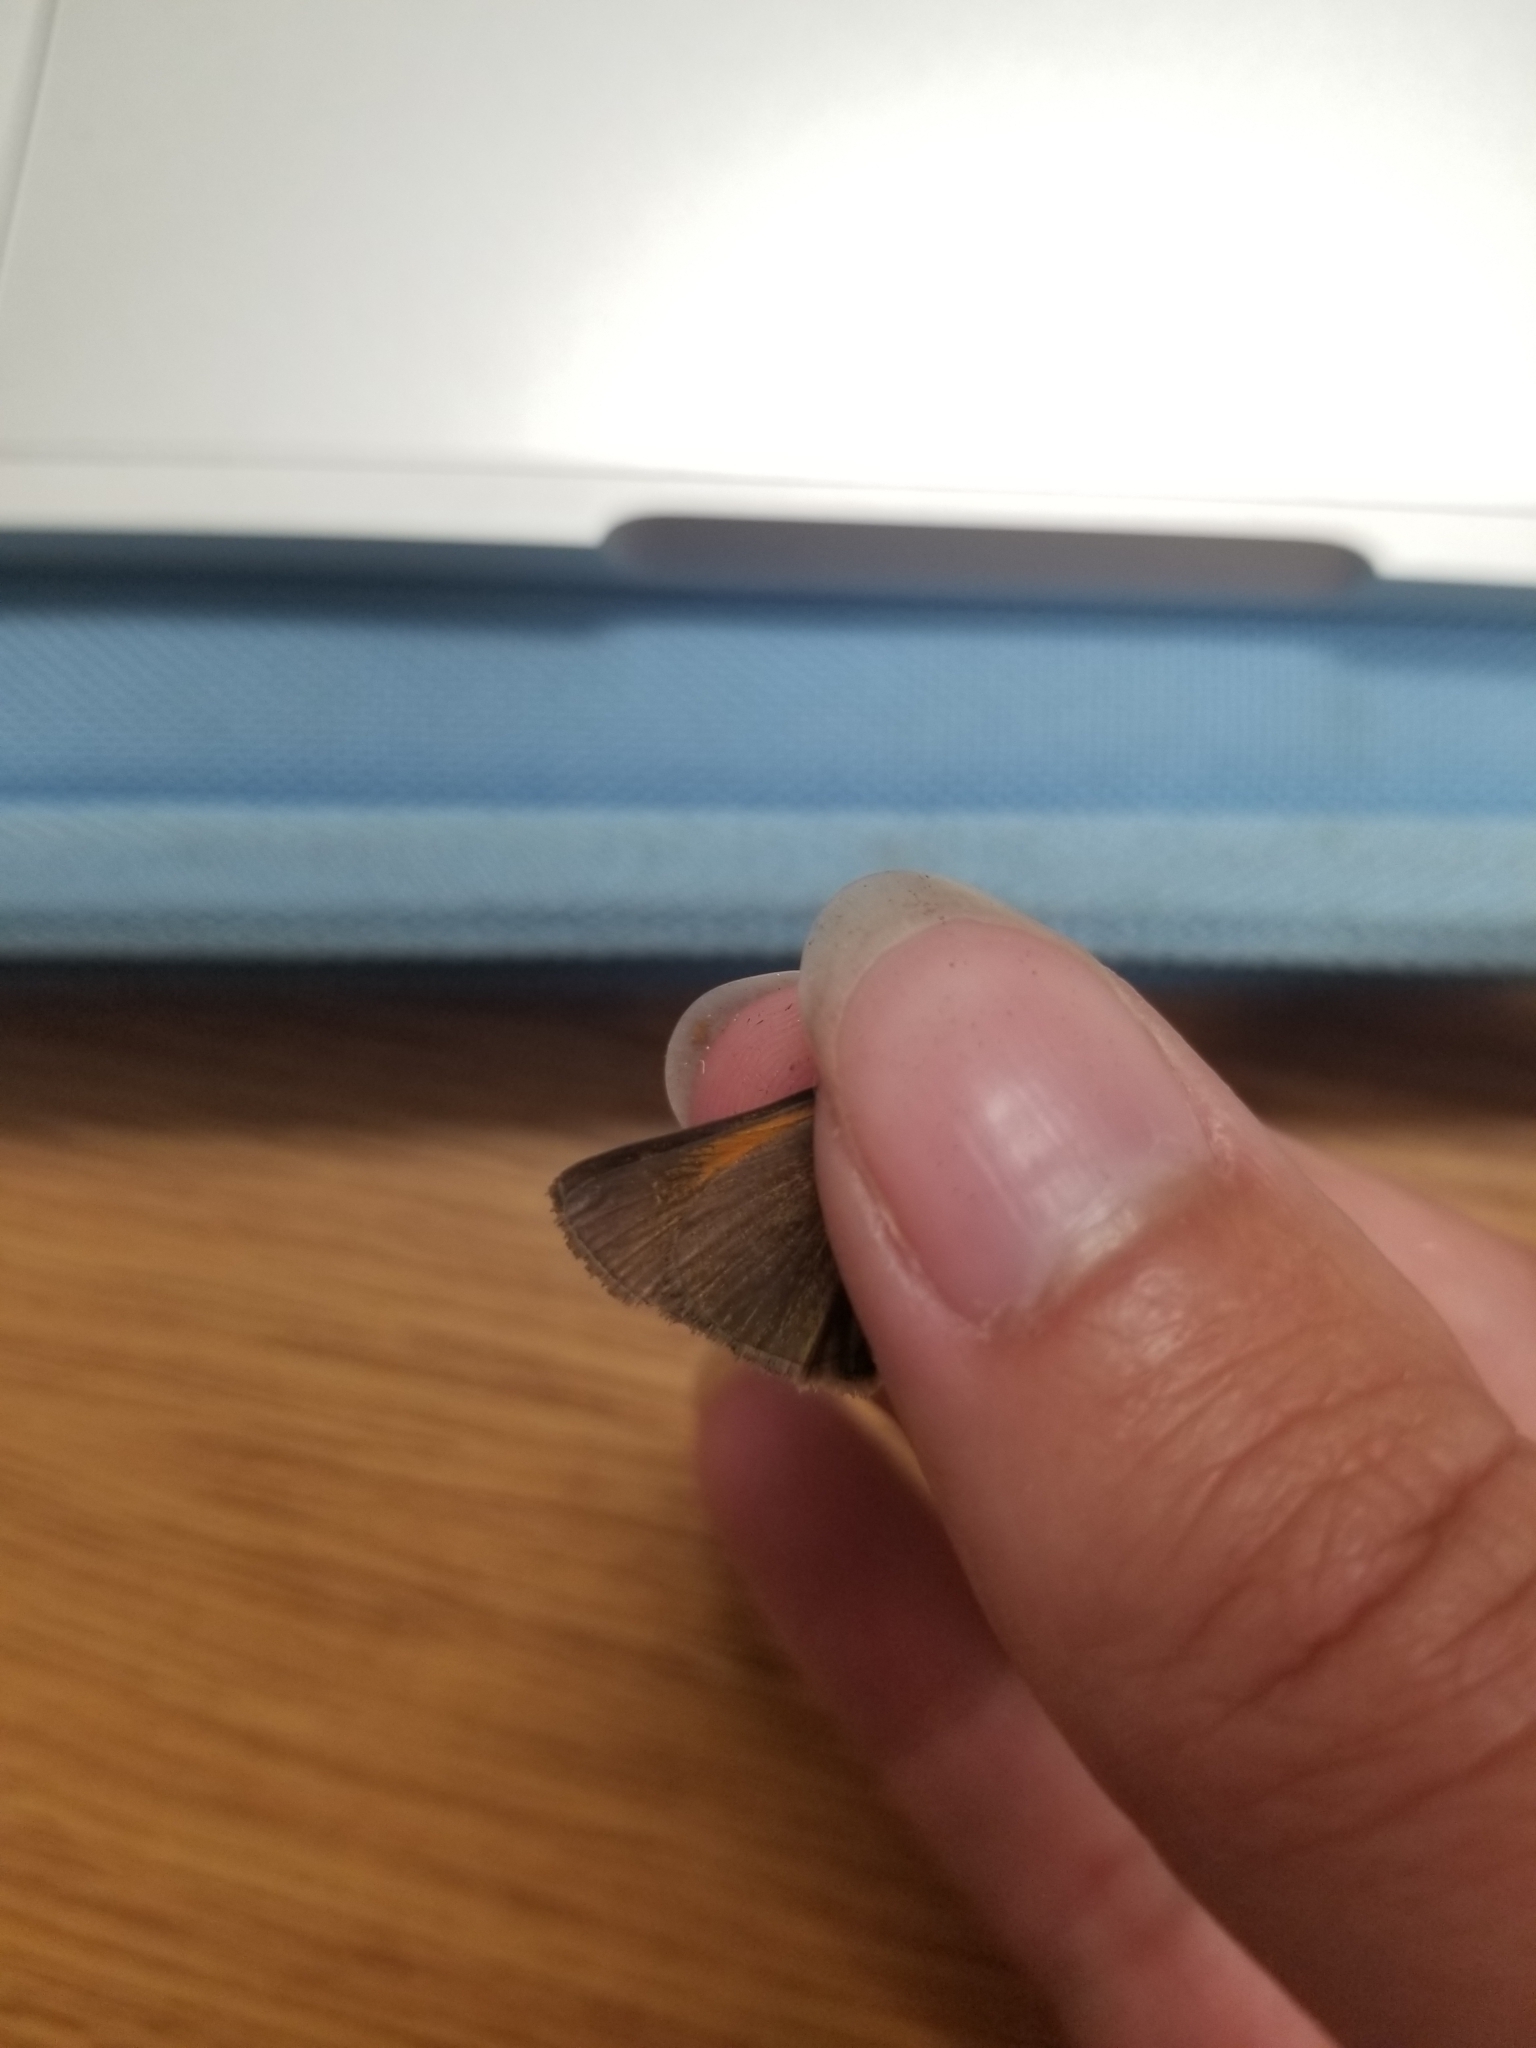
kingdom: Animalia
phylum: Arthropoda
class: Insecta
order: Lepidoptera
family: Hesperiidae
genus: Polites
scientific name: Polites themistocles
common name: Tawny-edged skipper
